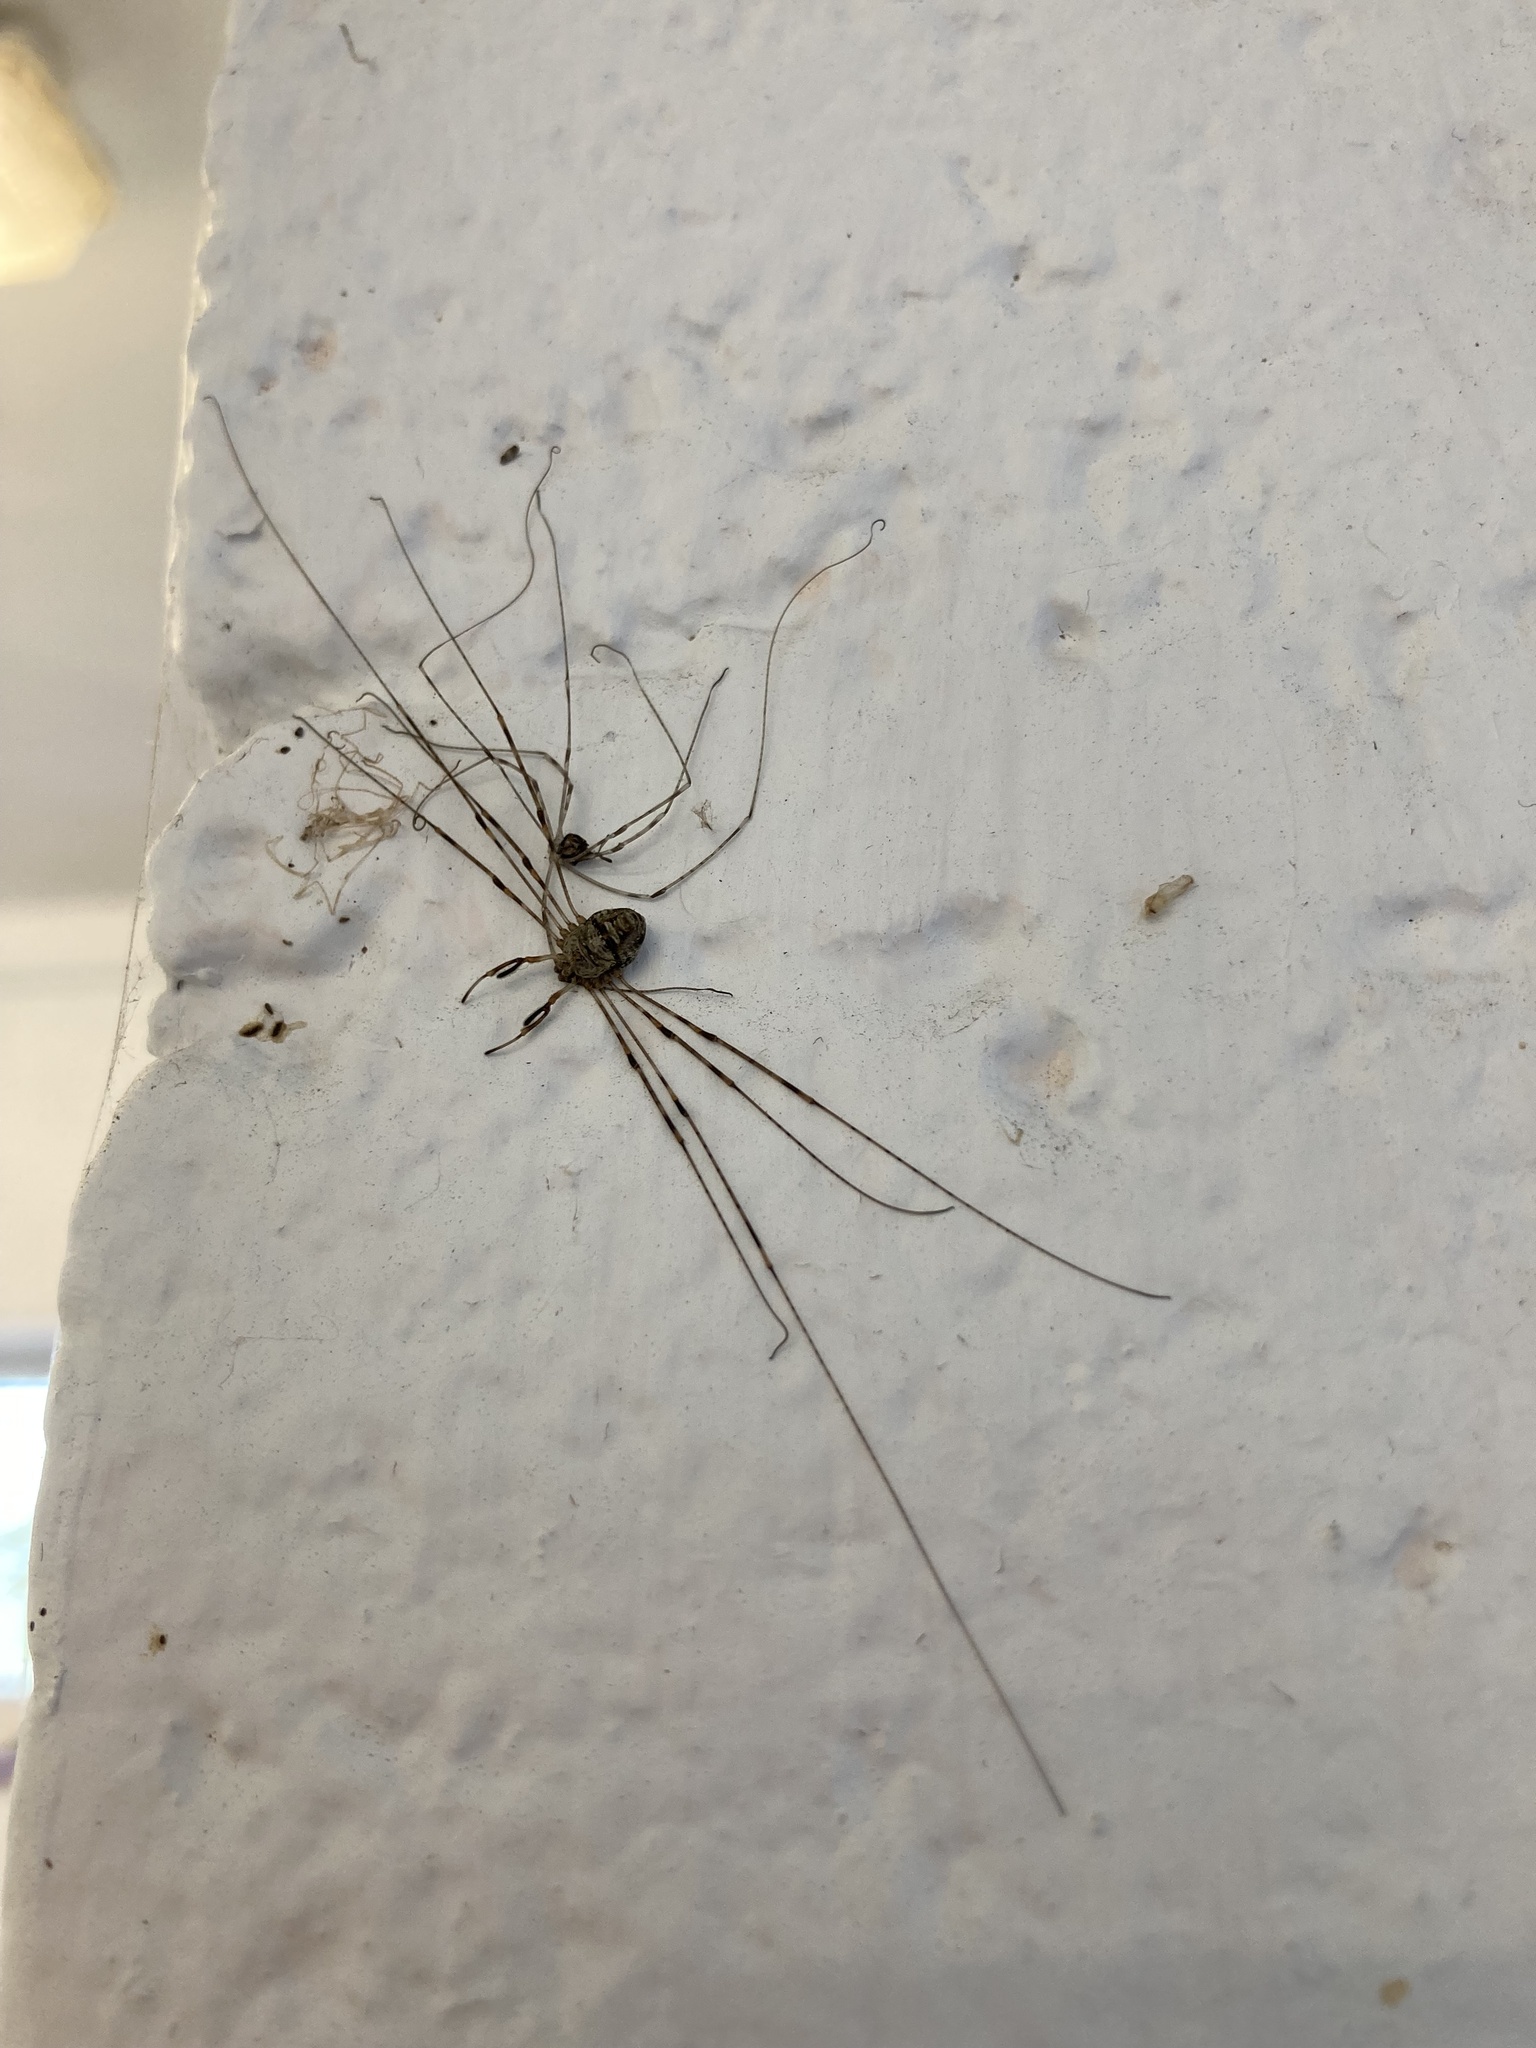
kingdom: Animalia
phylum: Arthropoda
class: Arachnida
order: Opiliones
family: Phalangiidae
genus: Dicranopalpus
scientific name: Dicranopalpus ramosus
